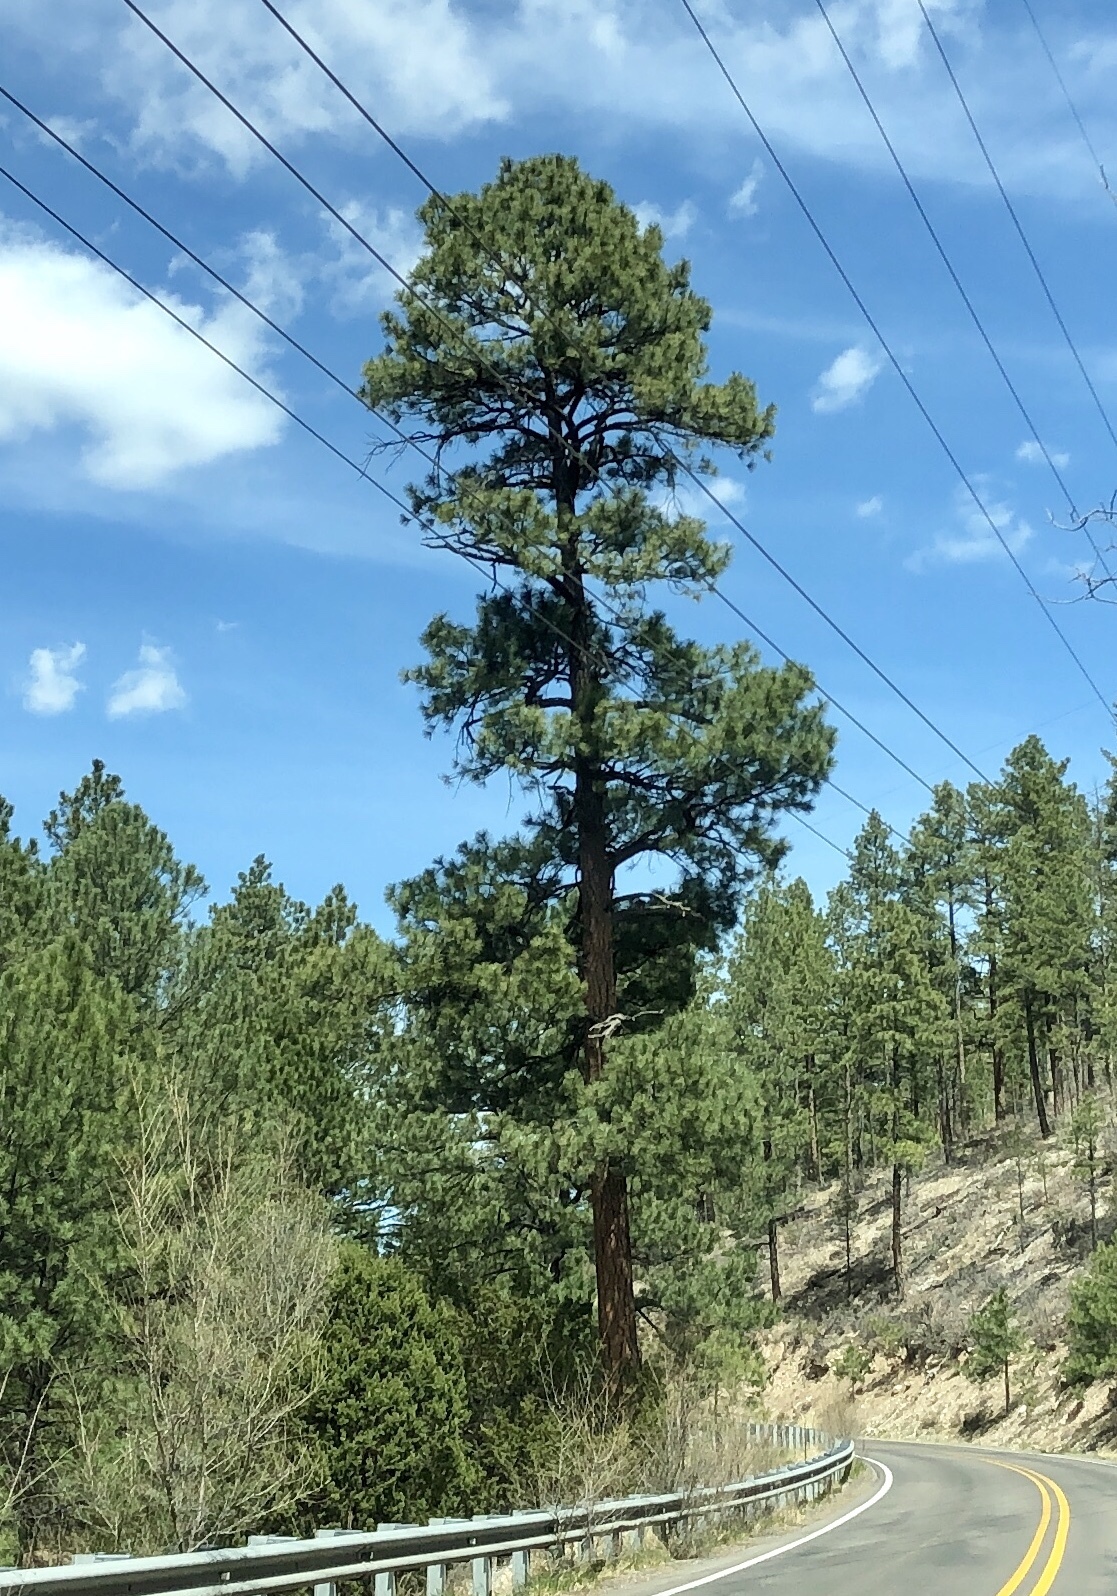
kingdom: Plantae
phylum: Tracheophyta
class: Pinopsida
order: Pinales
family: Pinaceae
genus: Pinus
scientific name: Pinus ponderosa
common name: Western yellow-pine
